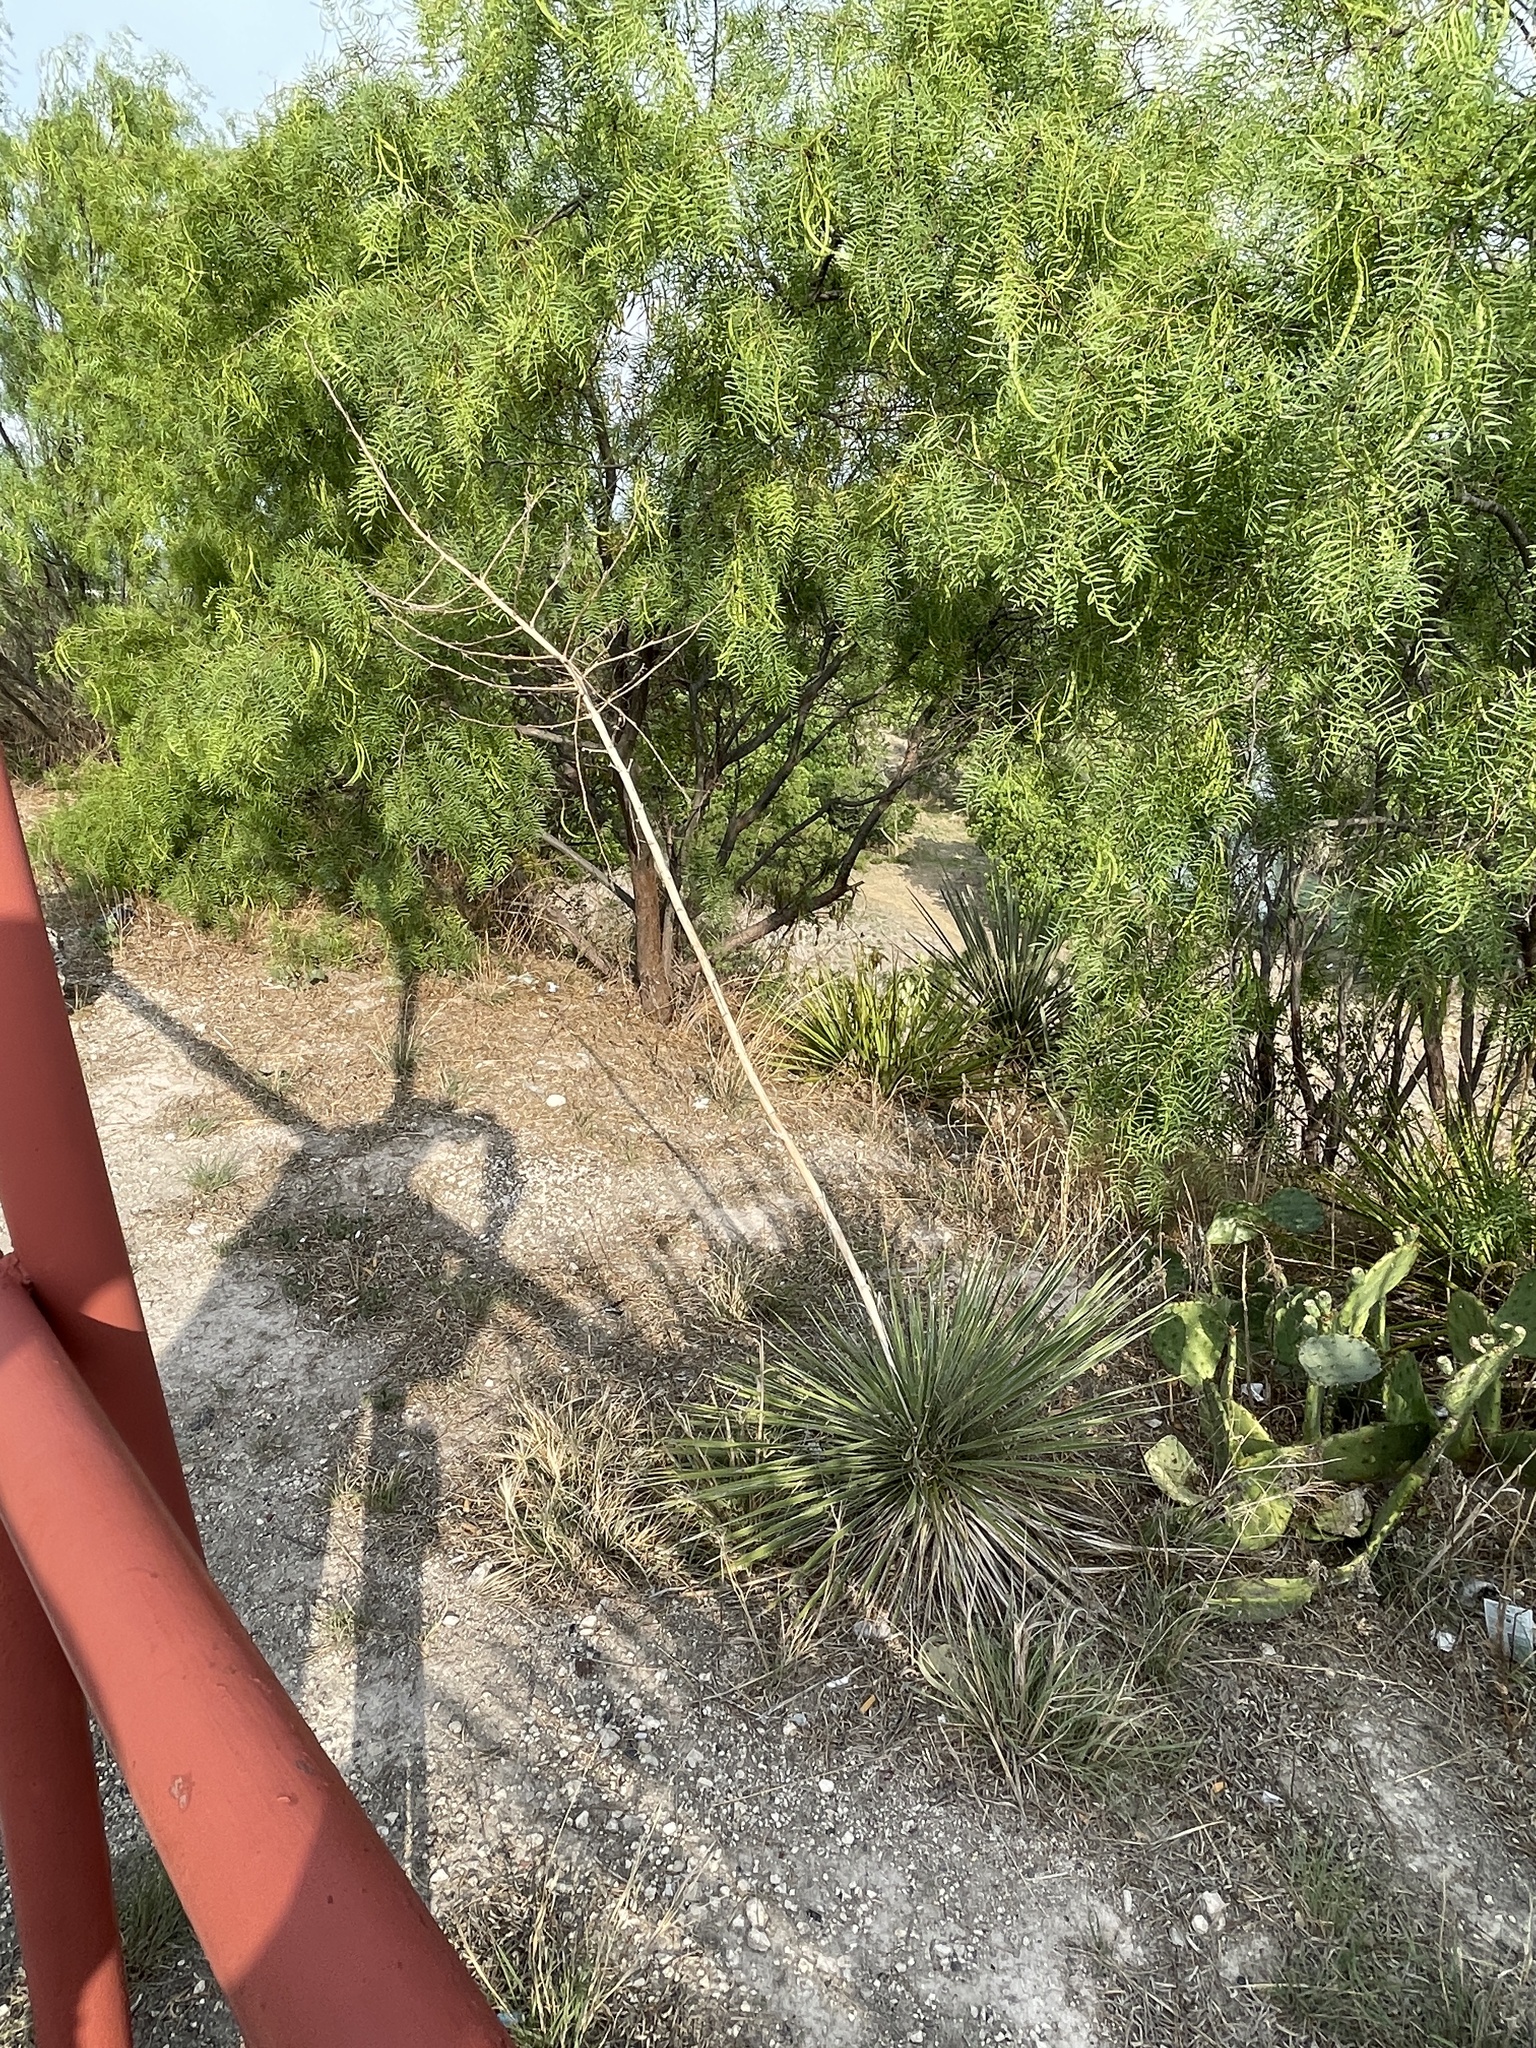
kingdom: Plantae
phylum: Tracheophyta
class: Liliopsida
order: Asparagales
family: Asparagaceae
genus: Yucca
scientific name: Yucca constricta
